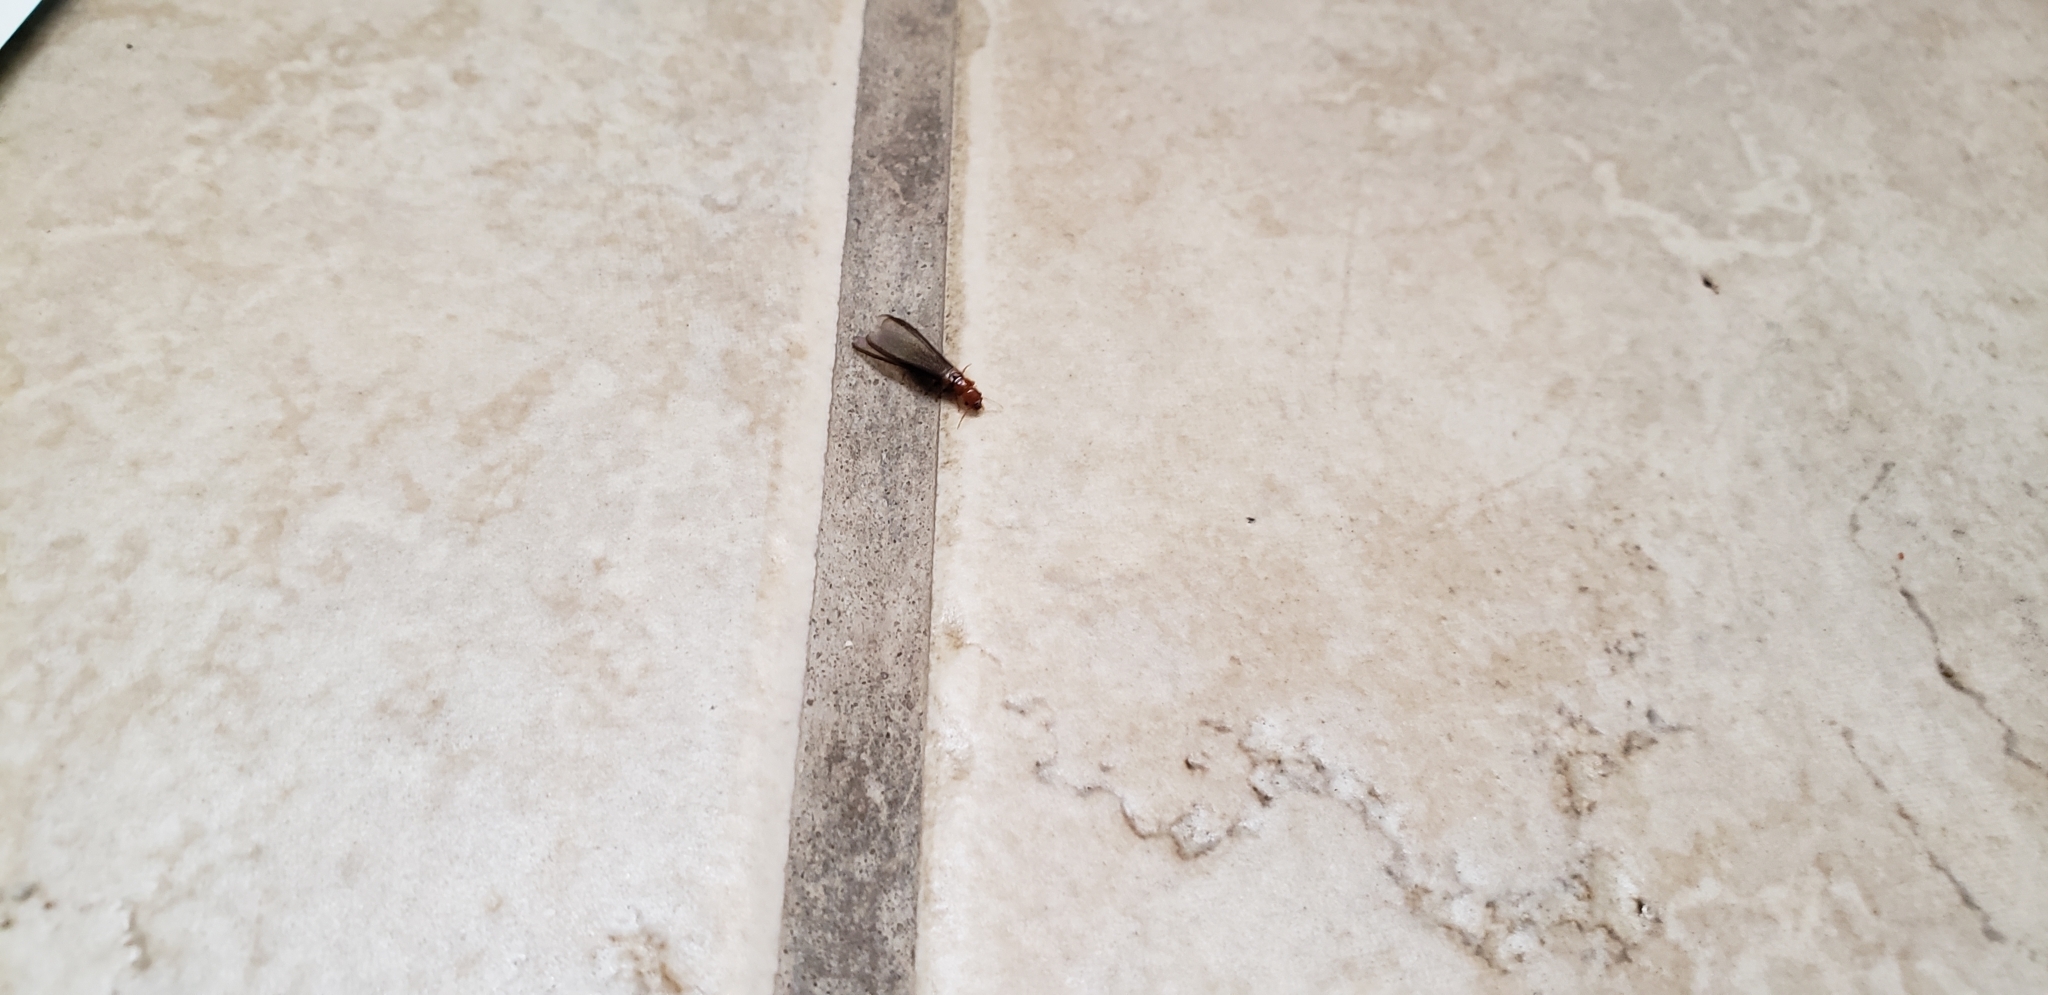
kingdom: Animalia
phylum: Arthropoda
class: Insecta
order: Blattodea
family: Kalotermitidae
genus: Incisitermes
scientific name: Incisitermes minor
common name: Termite
